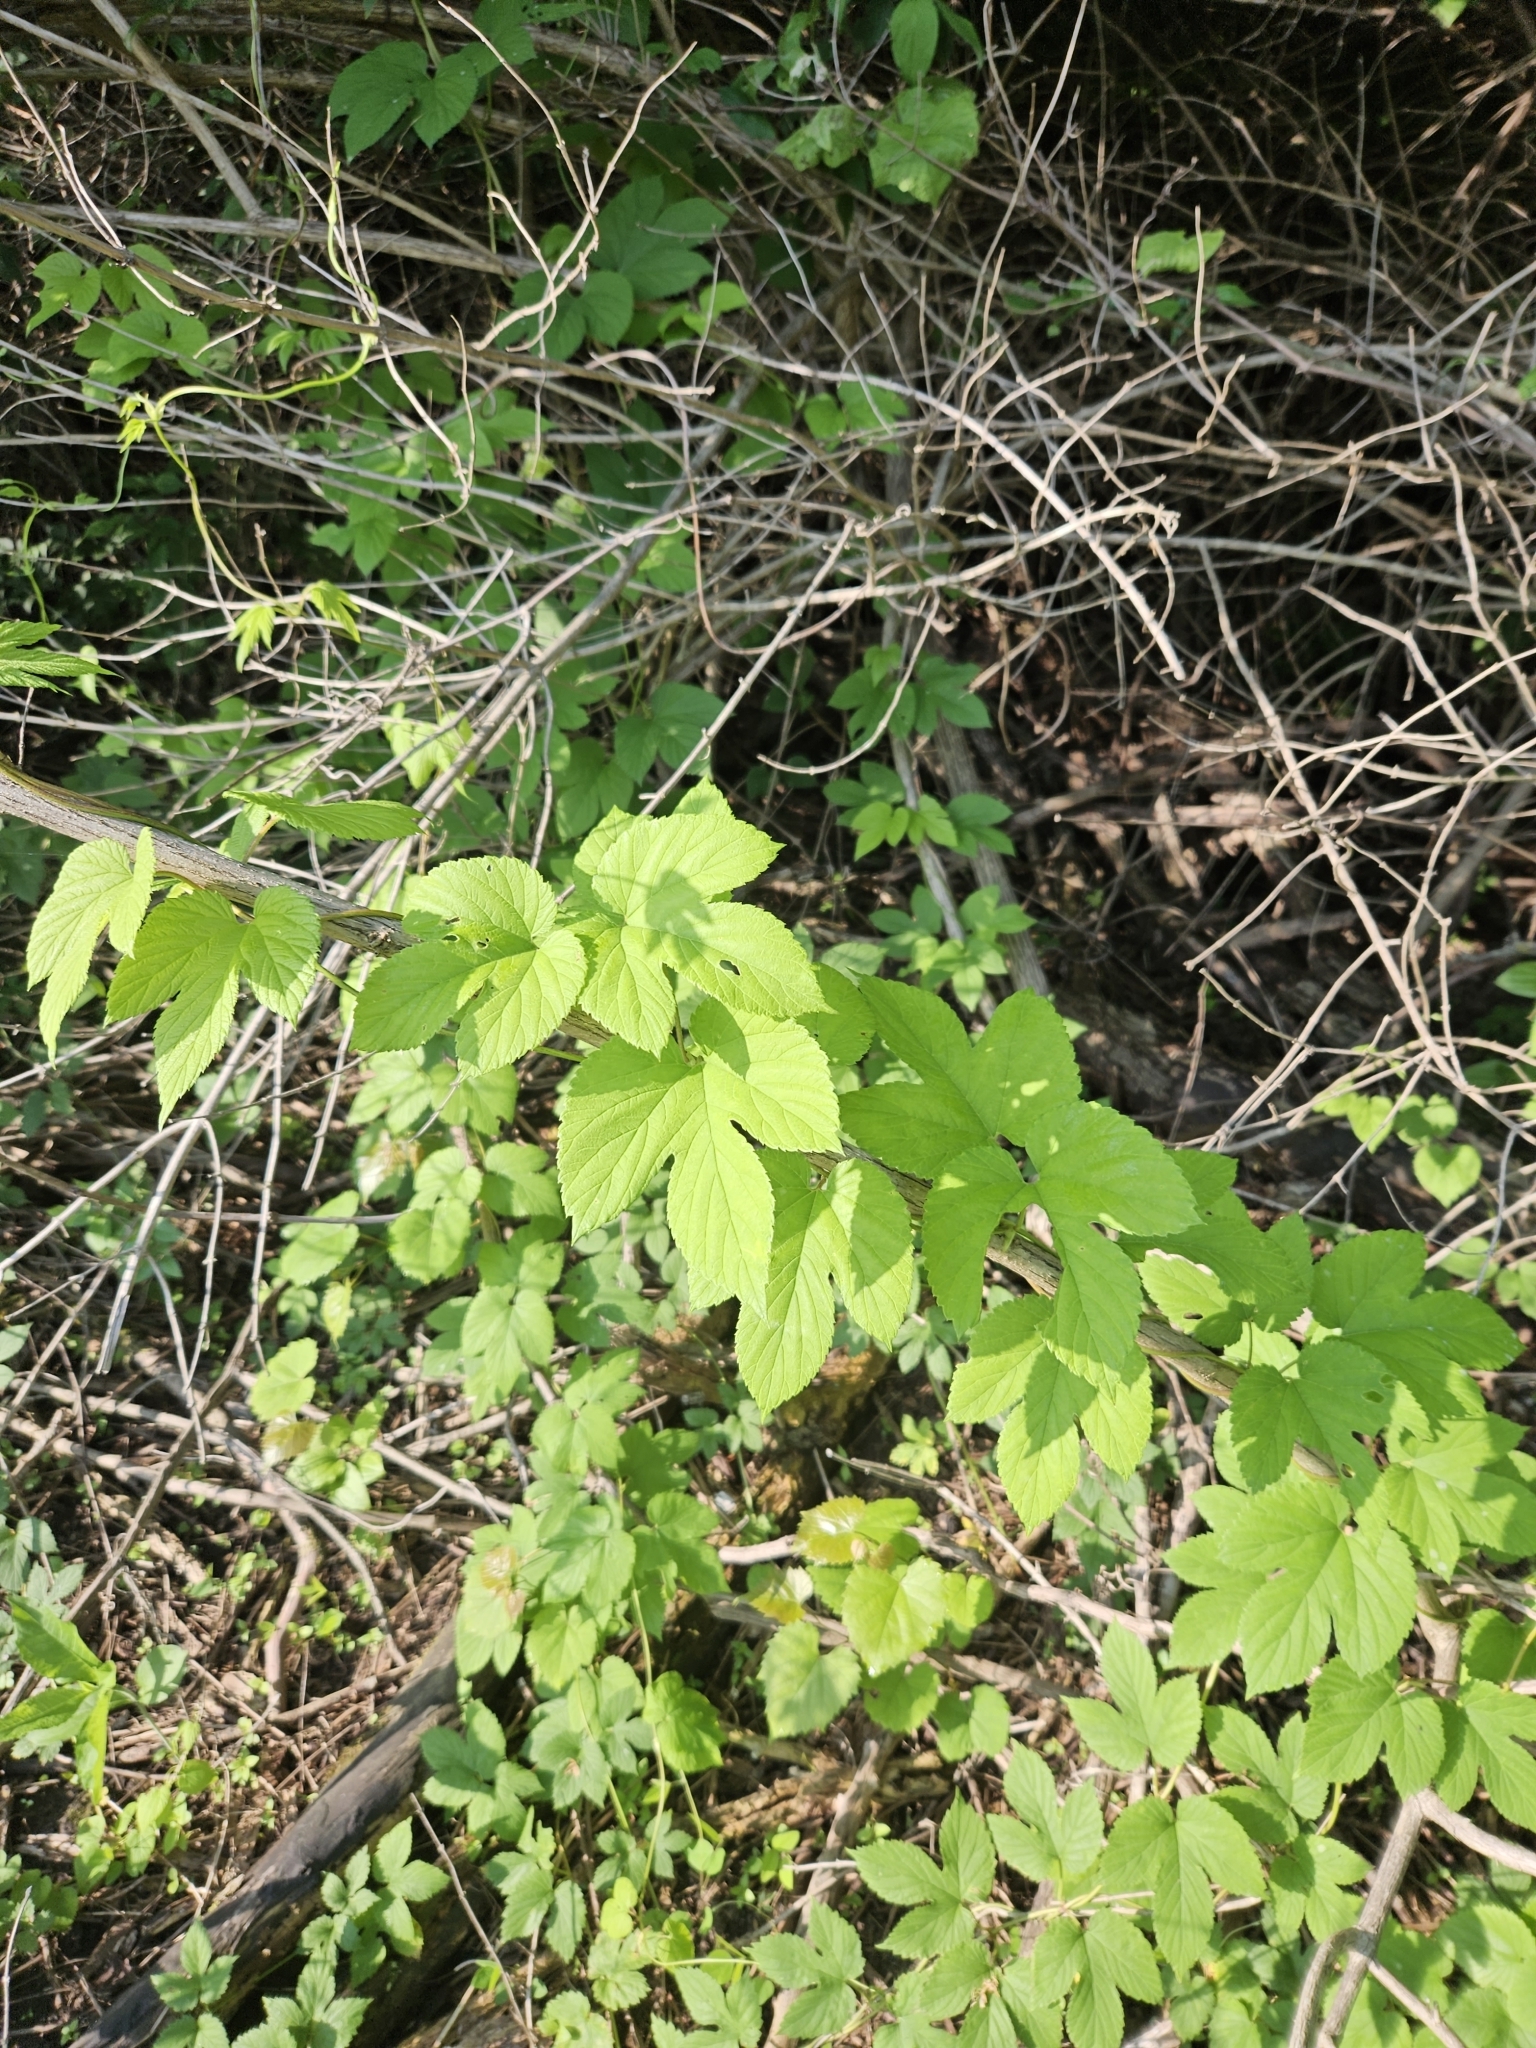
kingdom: Plantae
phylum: Tracheophyta
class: Magnoliopsida
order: Rosales
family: Cannabaceae
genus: Humulus
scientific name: Humulus lupulus
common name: Hop
